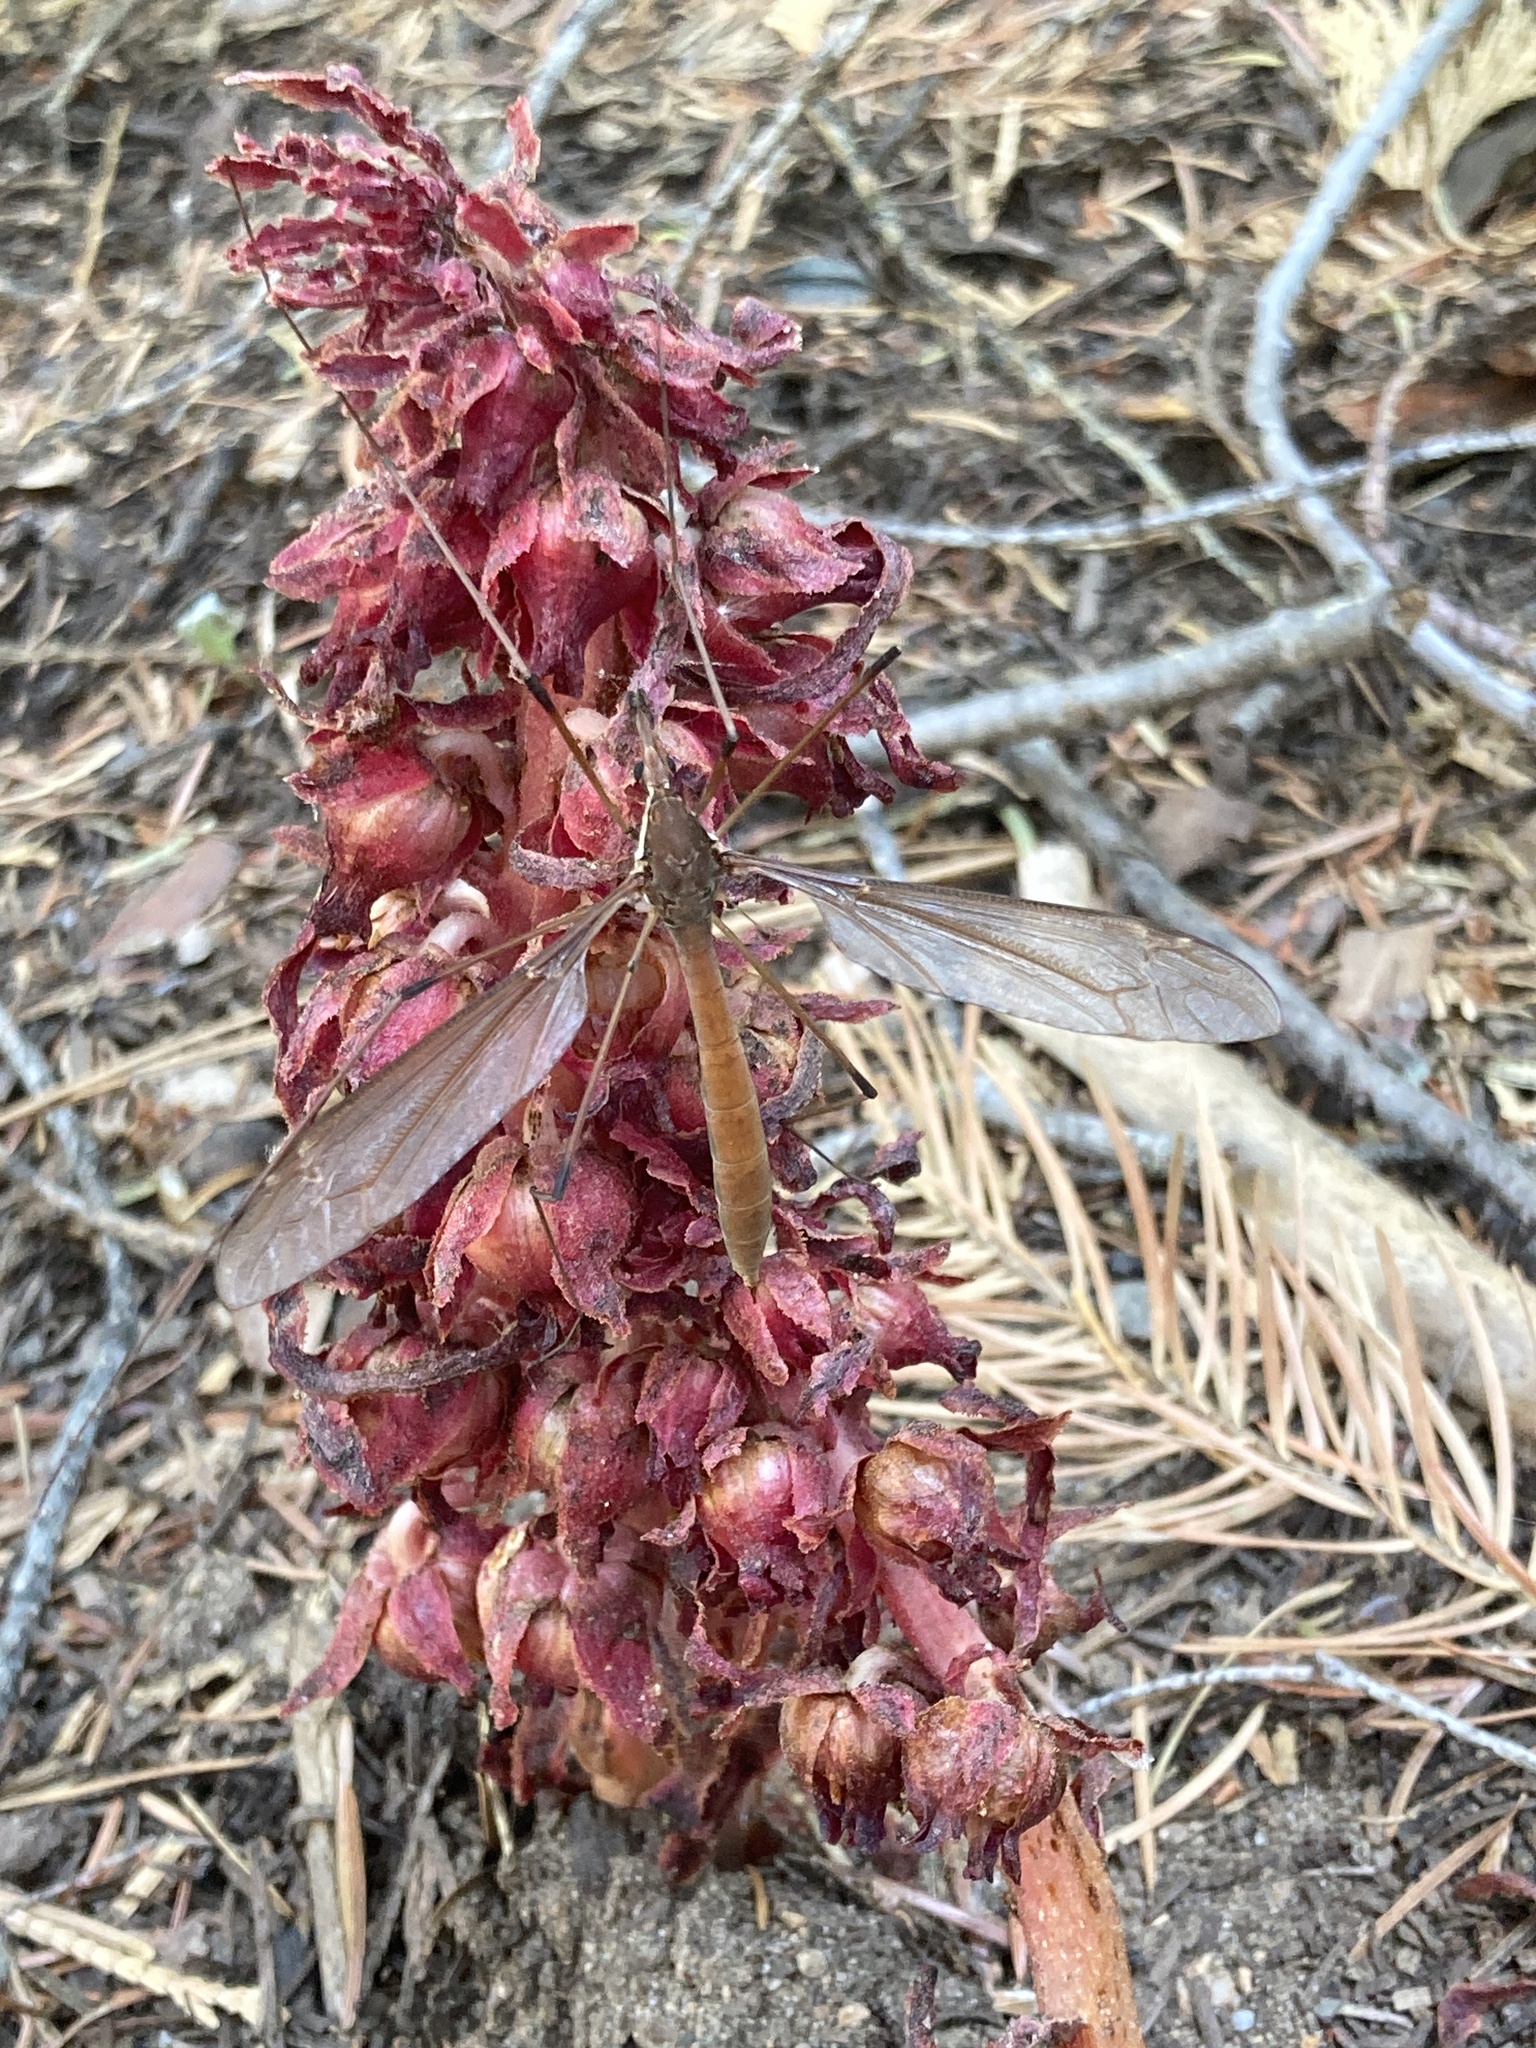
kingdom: Animalia
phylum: Arthropoda
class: Insecta
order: Diptera
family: Tipulidae
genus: Holorusia
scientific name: Holorusia hespera
